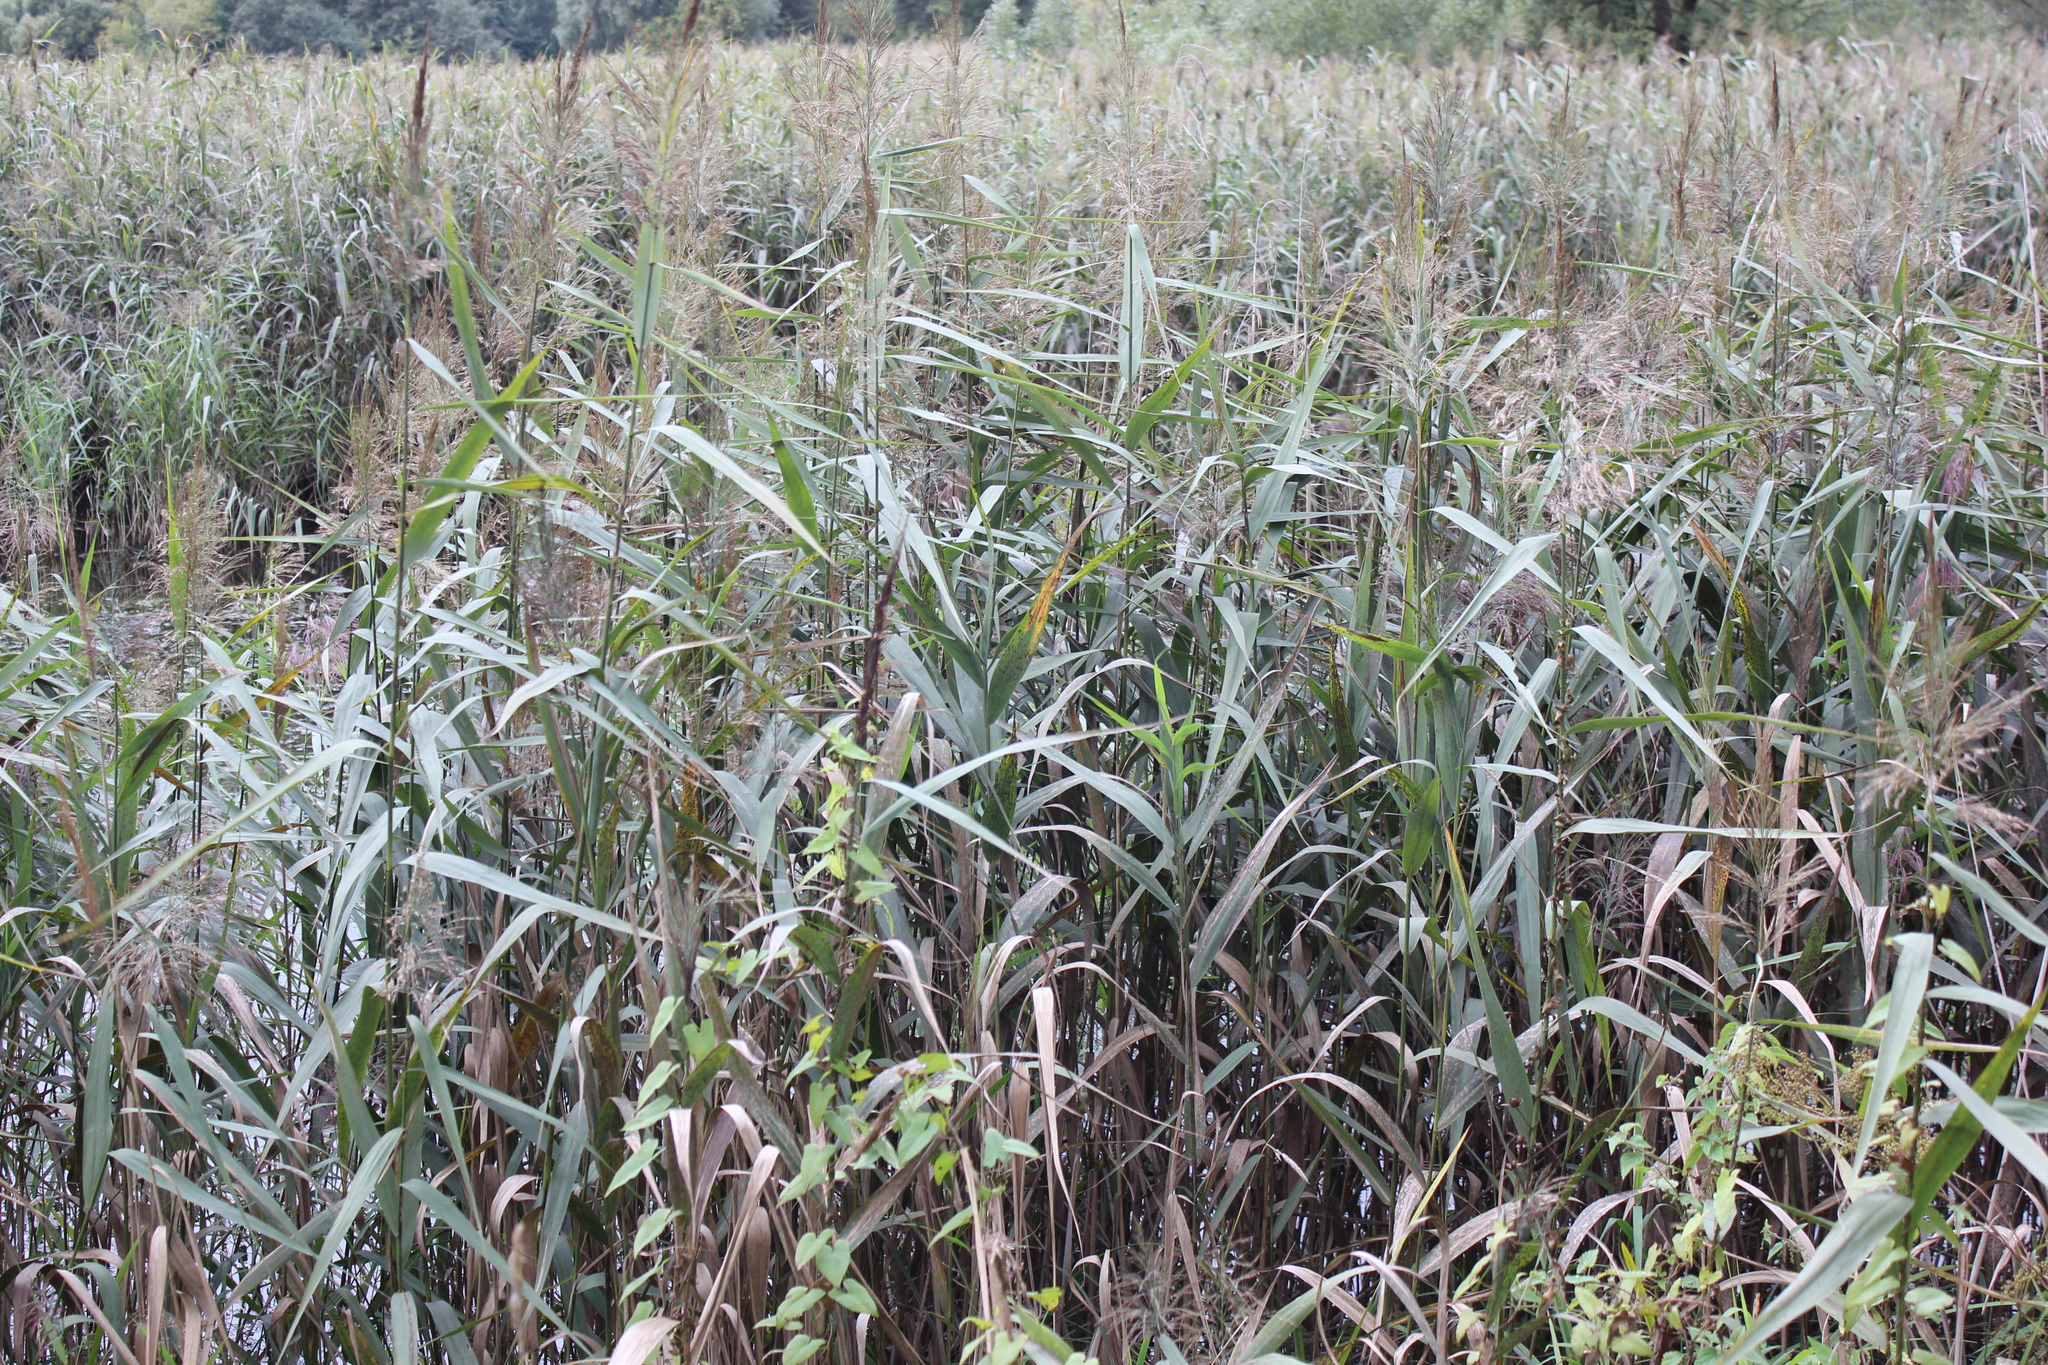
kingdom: Plantae
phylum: Tracheophyta
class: Liliopsida
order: Poales
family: Poaceae
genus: Phragmites
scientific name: Phragmites australis
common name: Common reed
